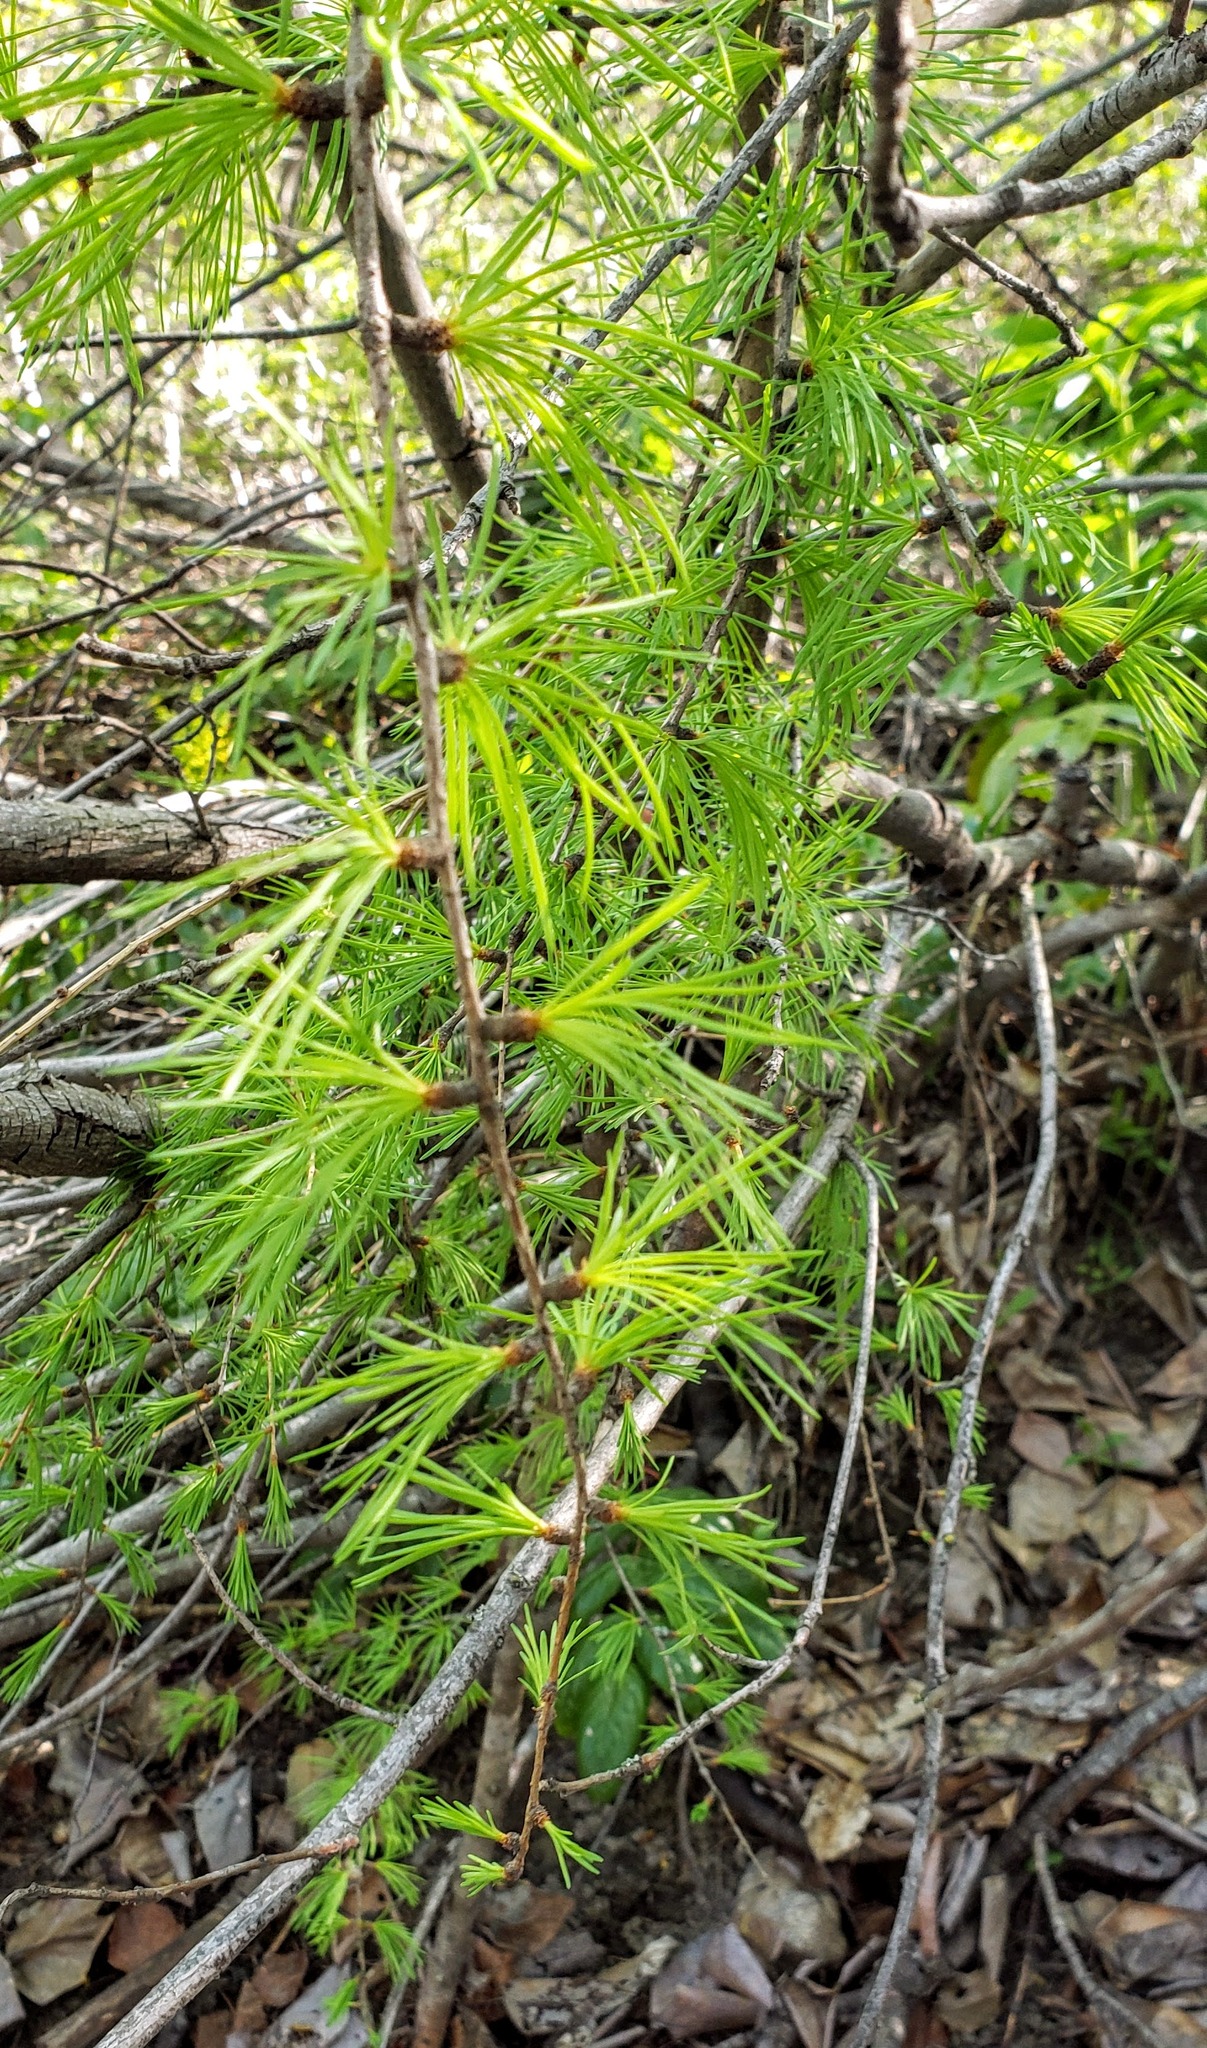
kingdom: Plantae
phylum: Tracheophyta
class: Pinopsida
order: Pinales
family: Pinaceae
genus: Larix
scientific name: Larix occidentalis
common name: Western larch
